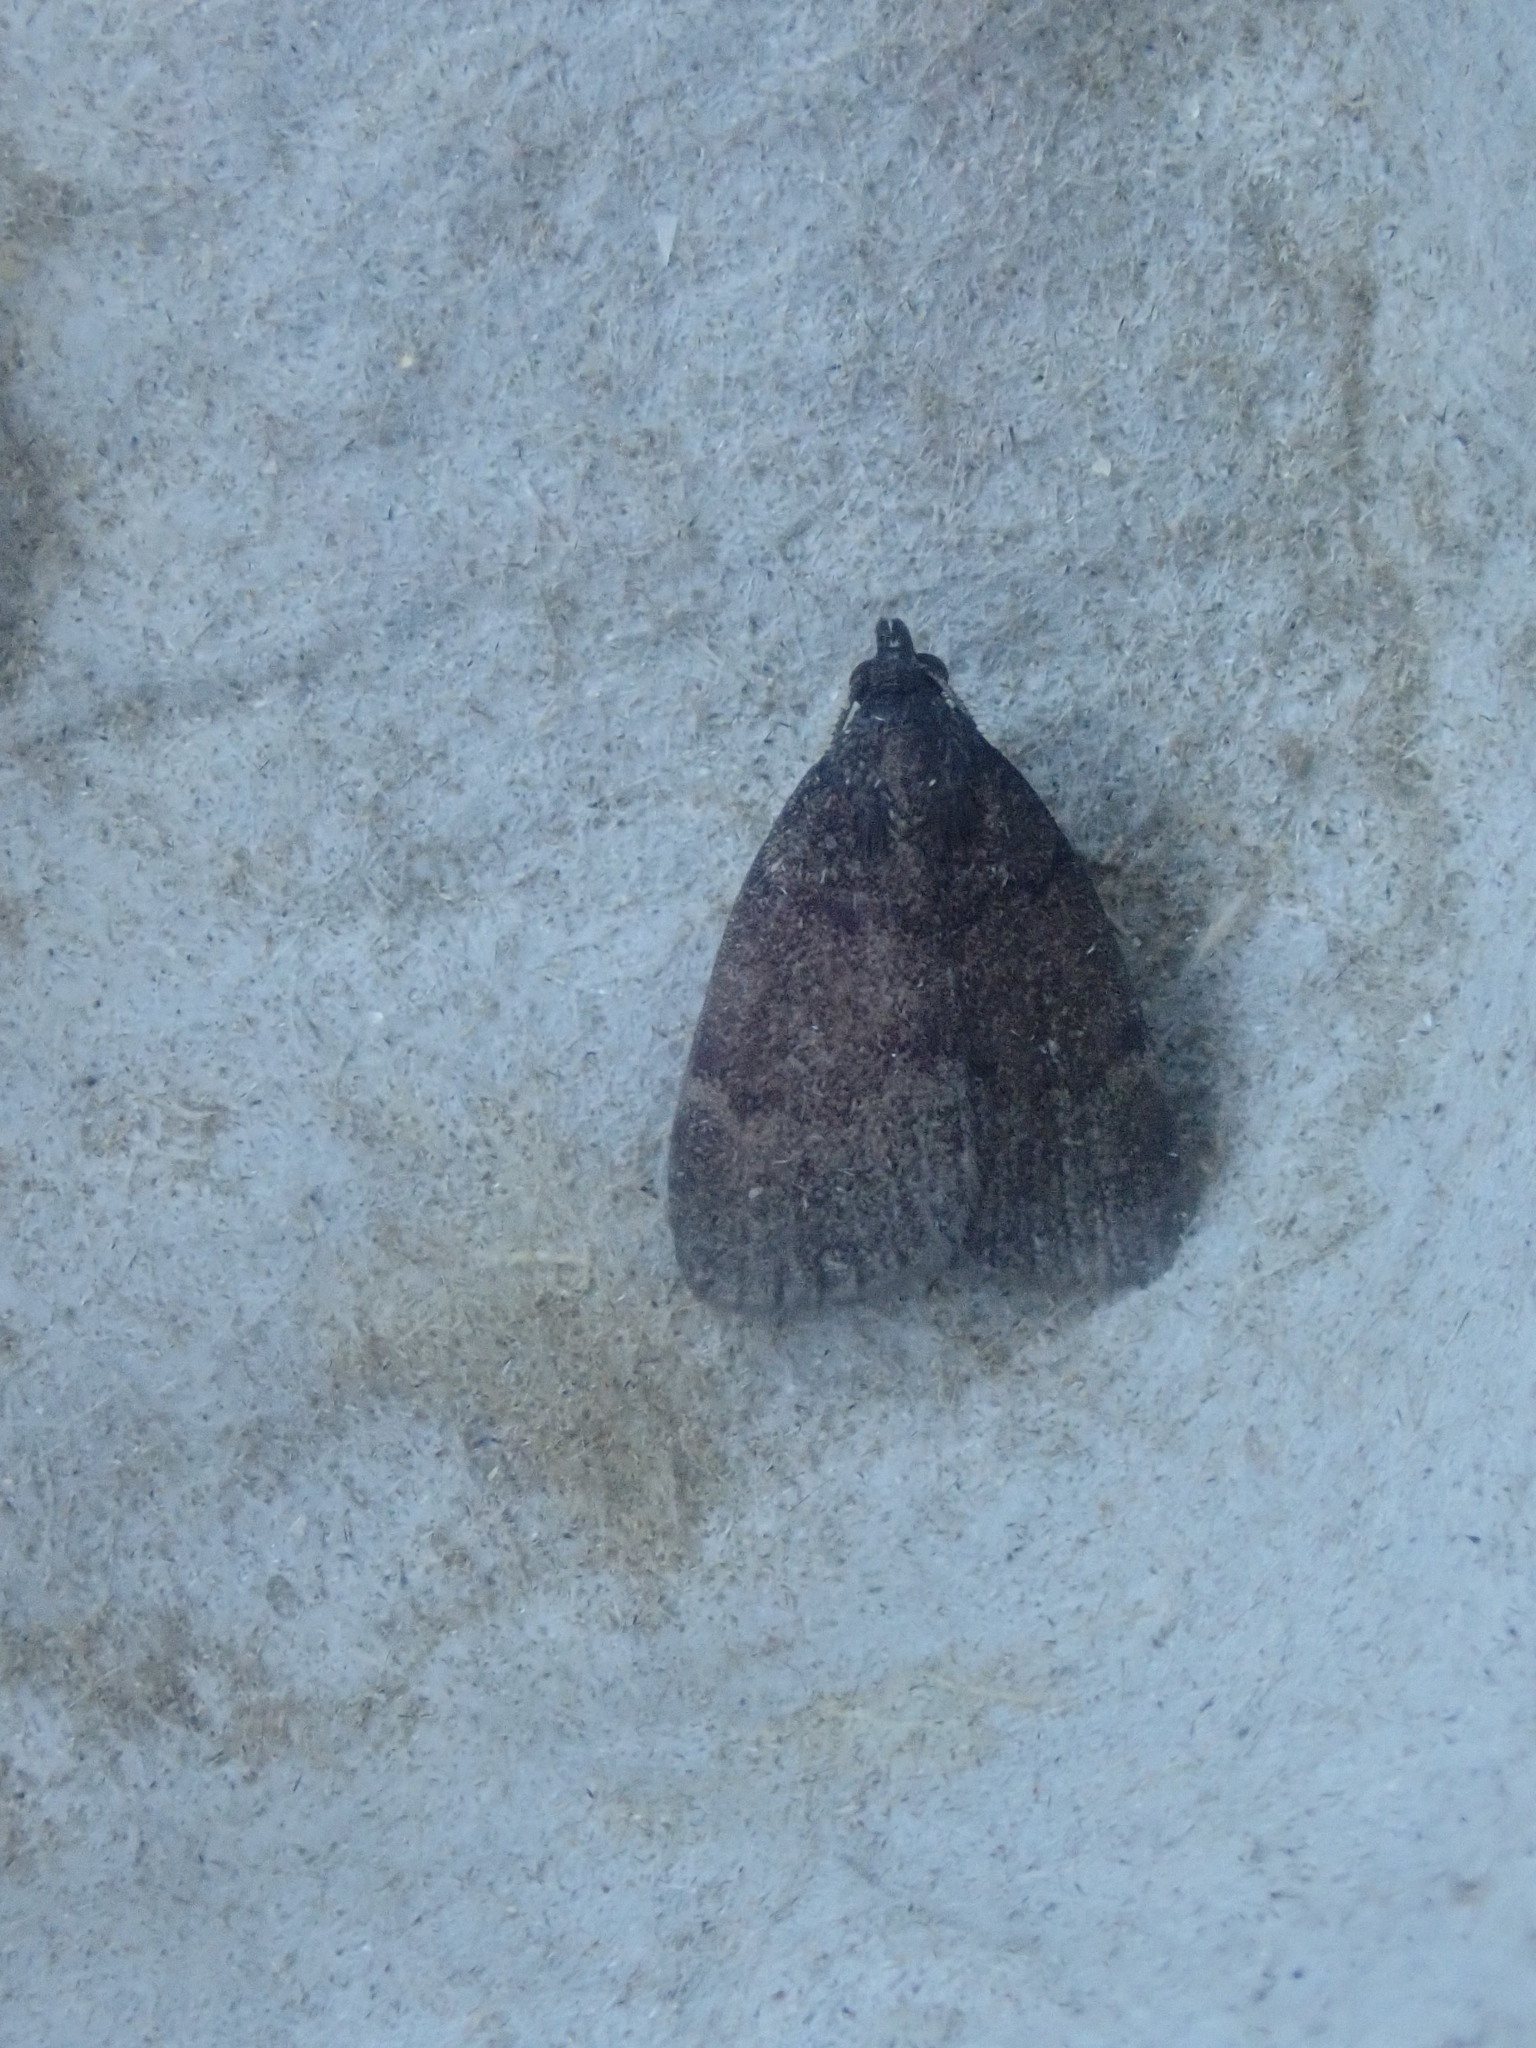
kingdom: Animalia
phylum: Arthropoda
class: Insecta
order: Lepidoptera
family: Erebidae
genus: Idia
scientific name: Idia rotundalis
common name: Rotund idia moth
